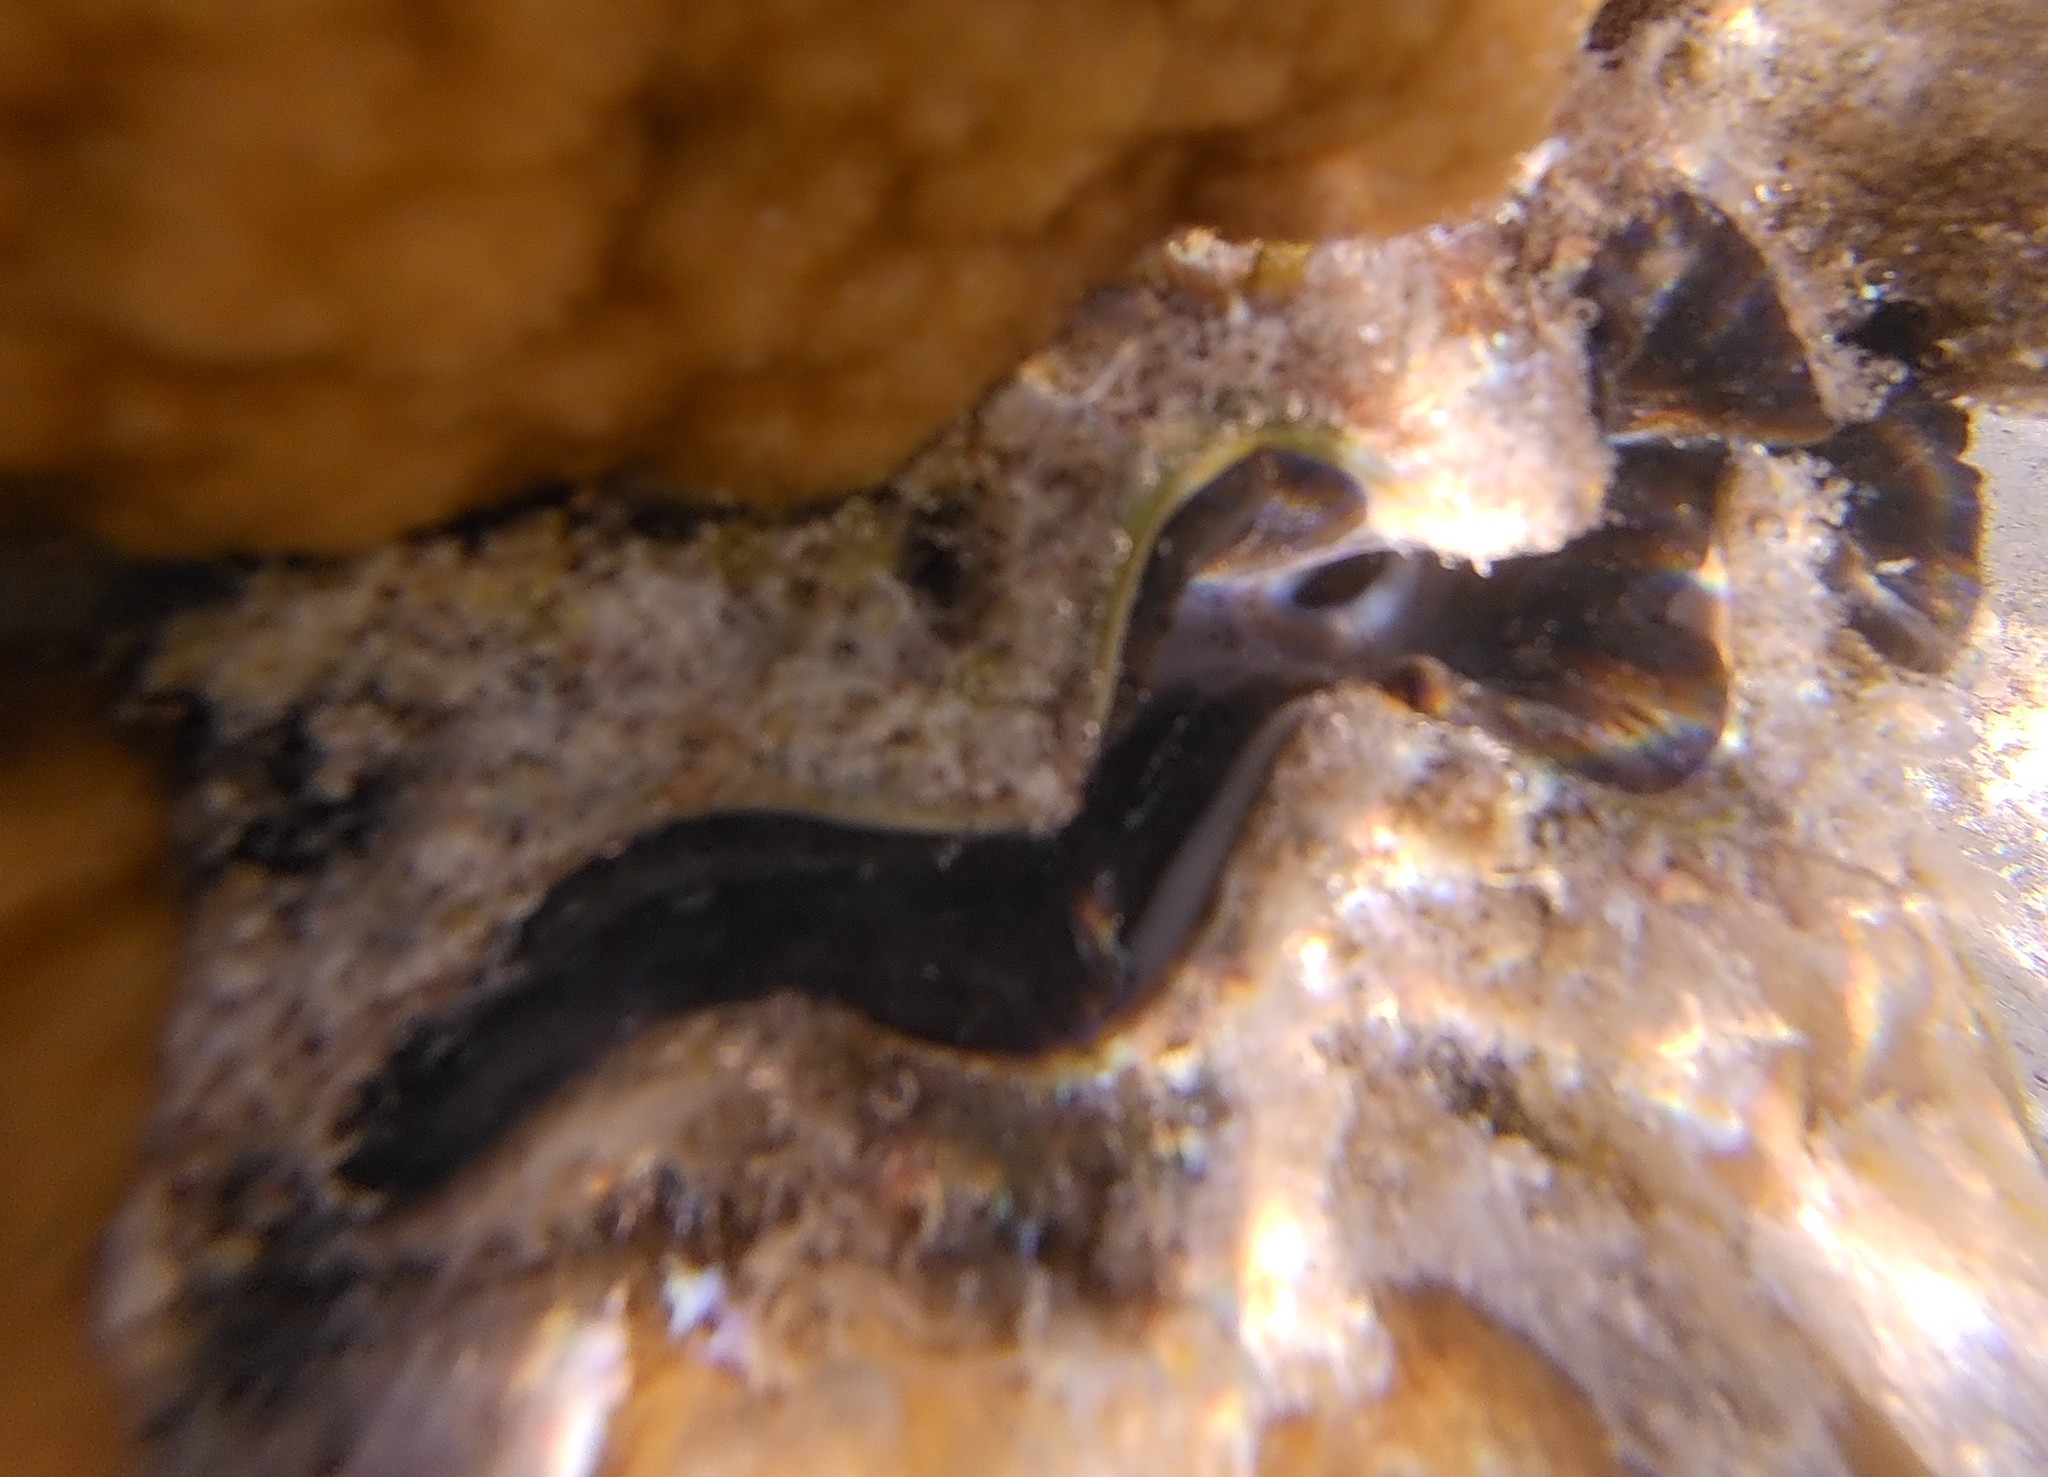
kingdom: Animalia
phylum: Mollusca
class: Bivalvia
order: Cardiida
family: Cardiidae
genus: Tridacna
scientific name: Tridacna maxima
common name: Small giant clam
